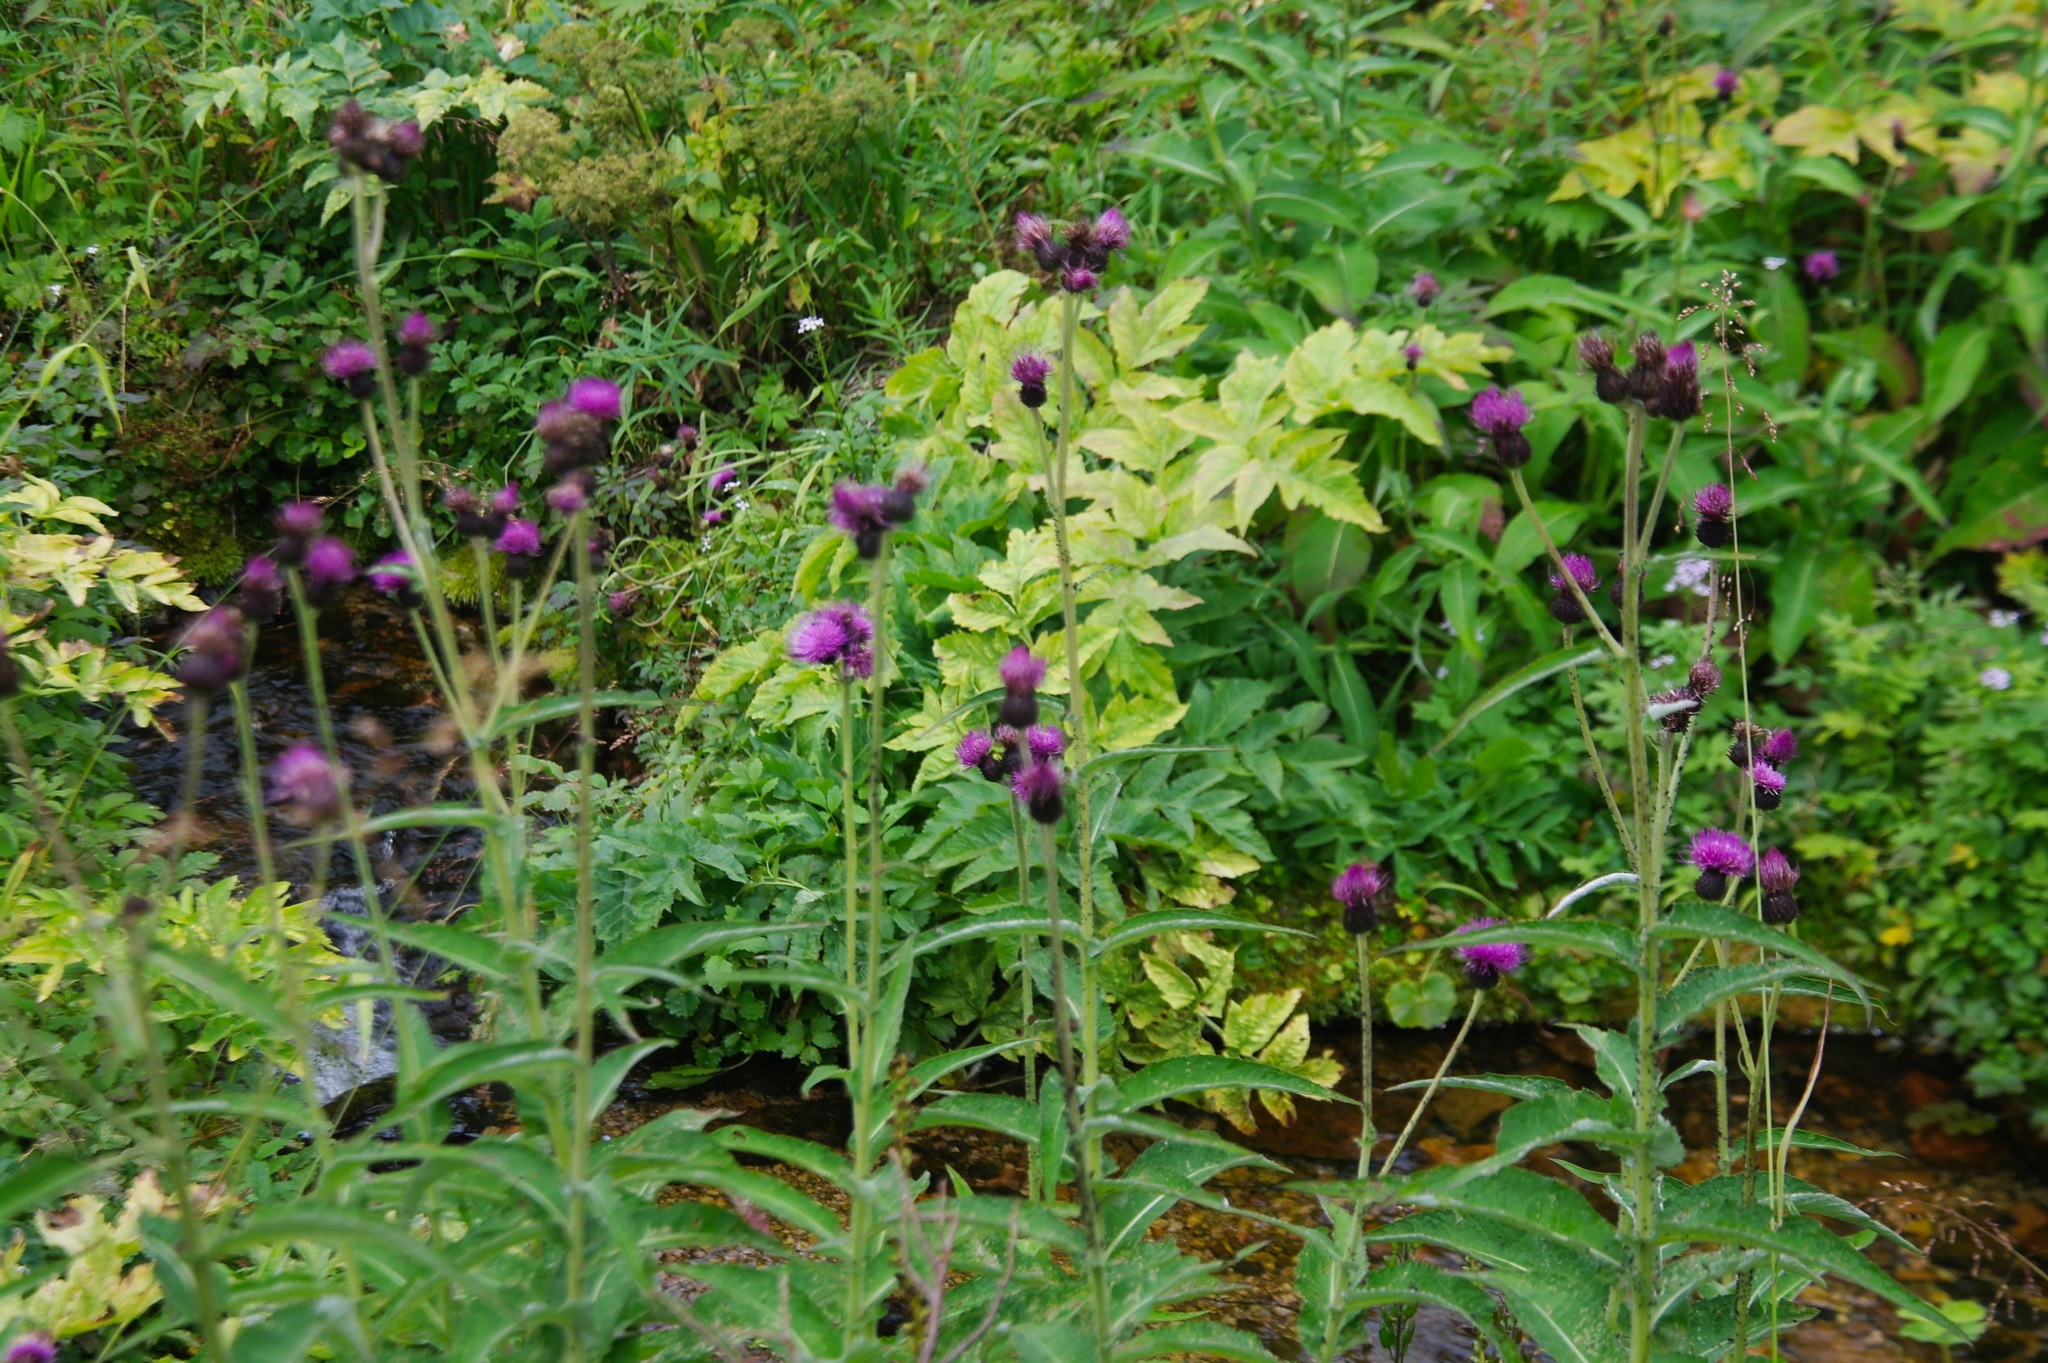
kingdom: Plantae
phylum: Tracheophyta
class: Magnoliopsida
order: Asterales
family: Asteraceae
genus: Cirsium
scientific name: Cirsium helenioides
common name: Melancholy thistle
